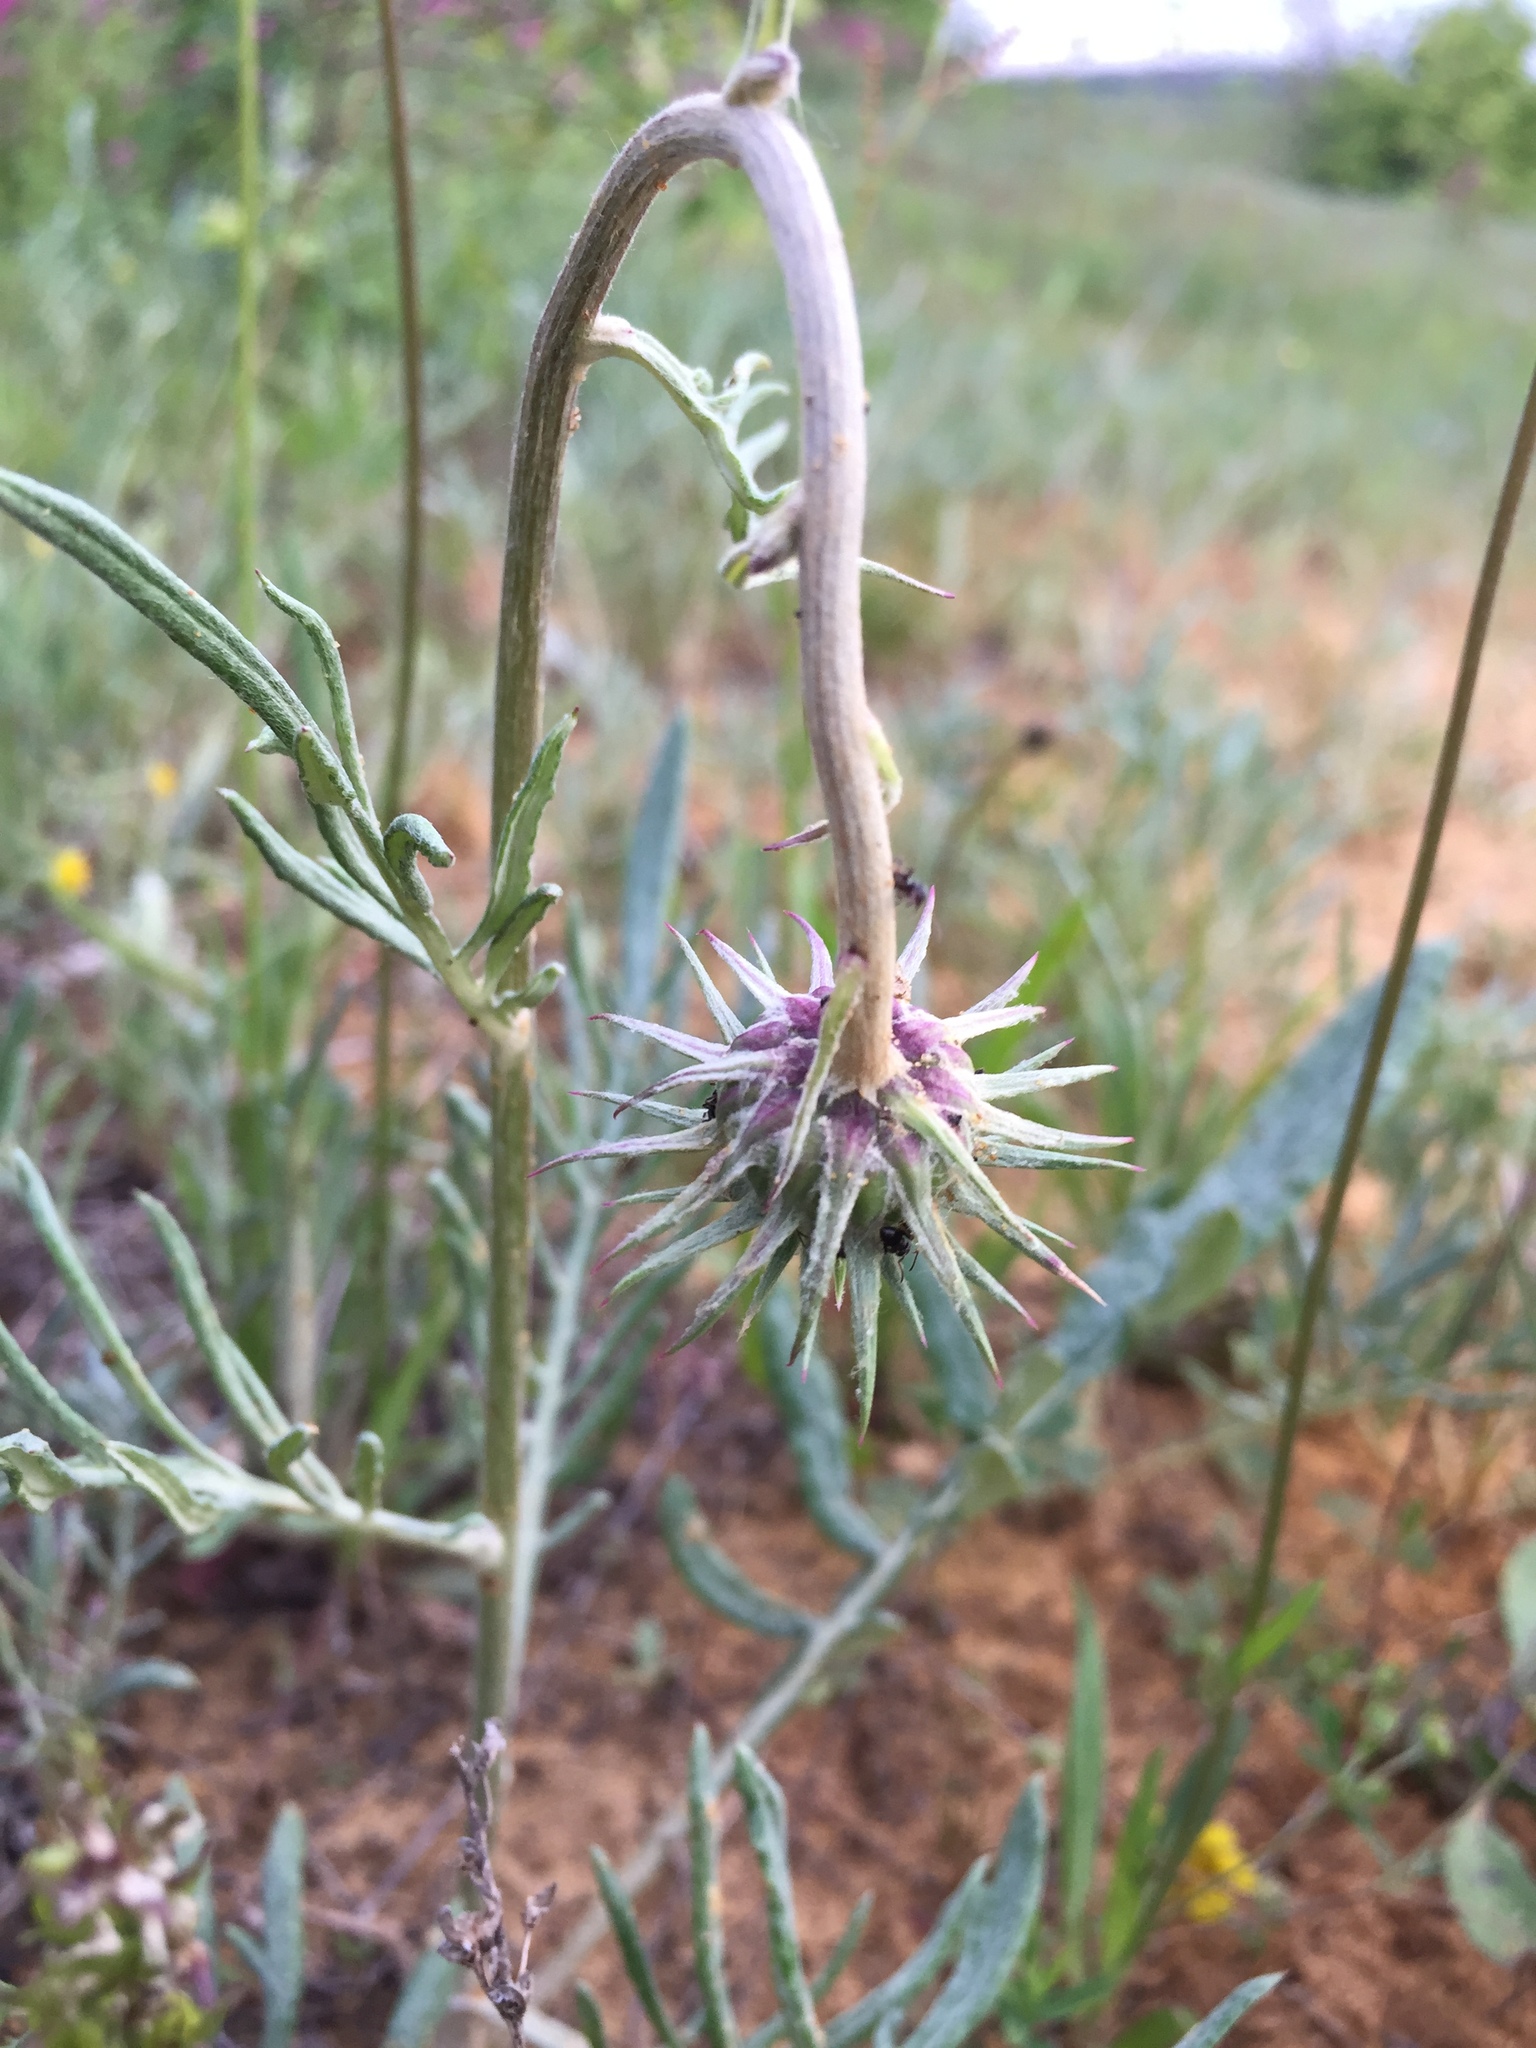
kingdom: Plantae
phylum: Tracheophyta
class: Magnoliopsida
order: Asterales
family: Asteraceae
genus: Jurinea
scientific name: Jurinea cyanoides
